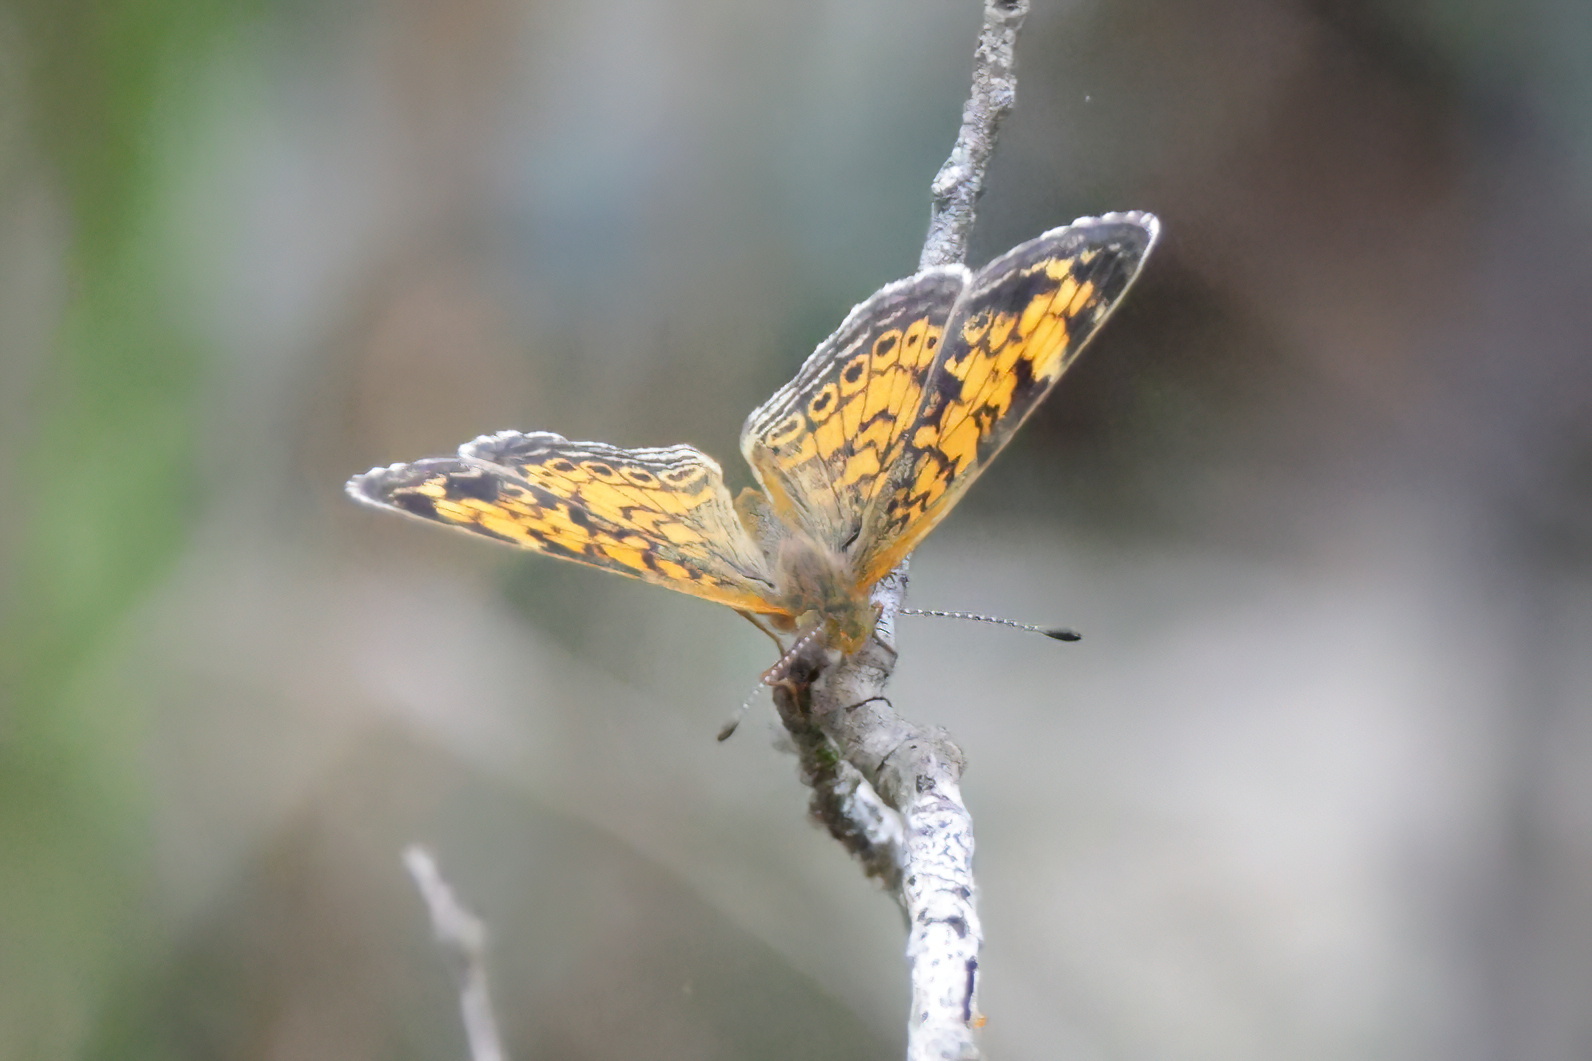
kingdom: Animalia
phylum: Arthropoda
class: Insecta
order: Lepidoptera
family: Nymphalidae
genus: Phyciodes
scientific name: Phyciodes tharos
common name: Pearl crescent
